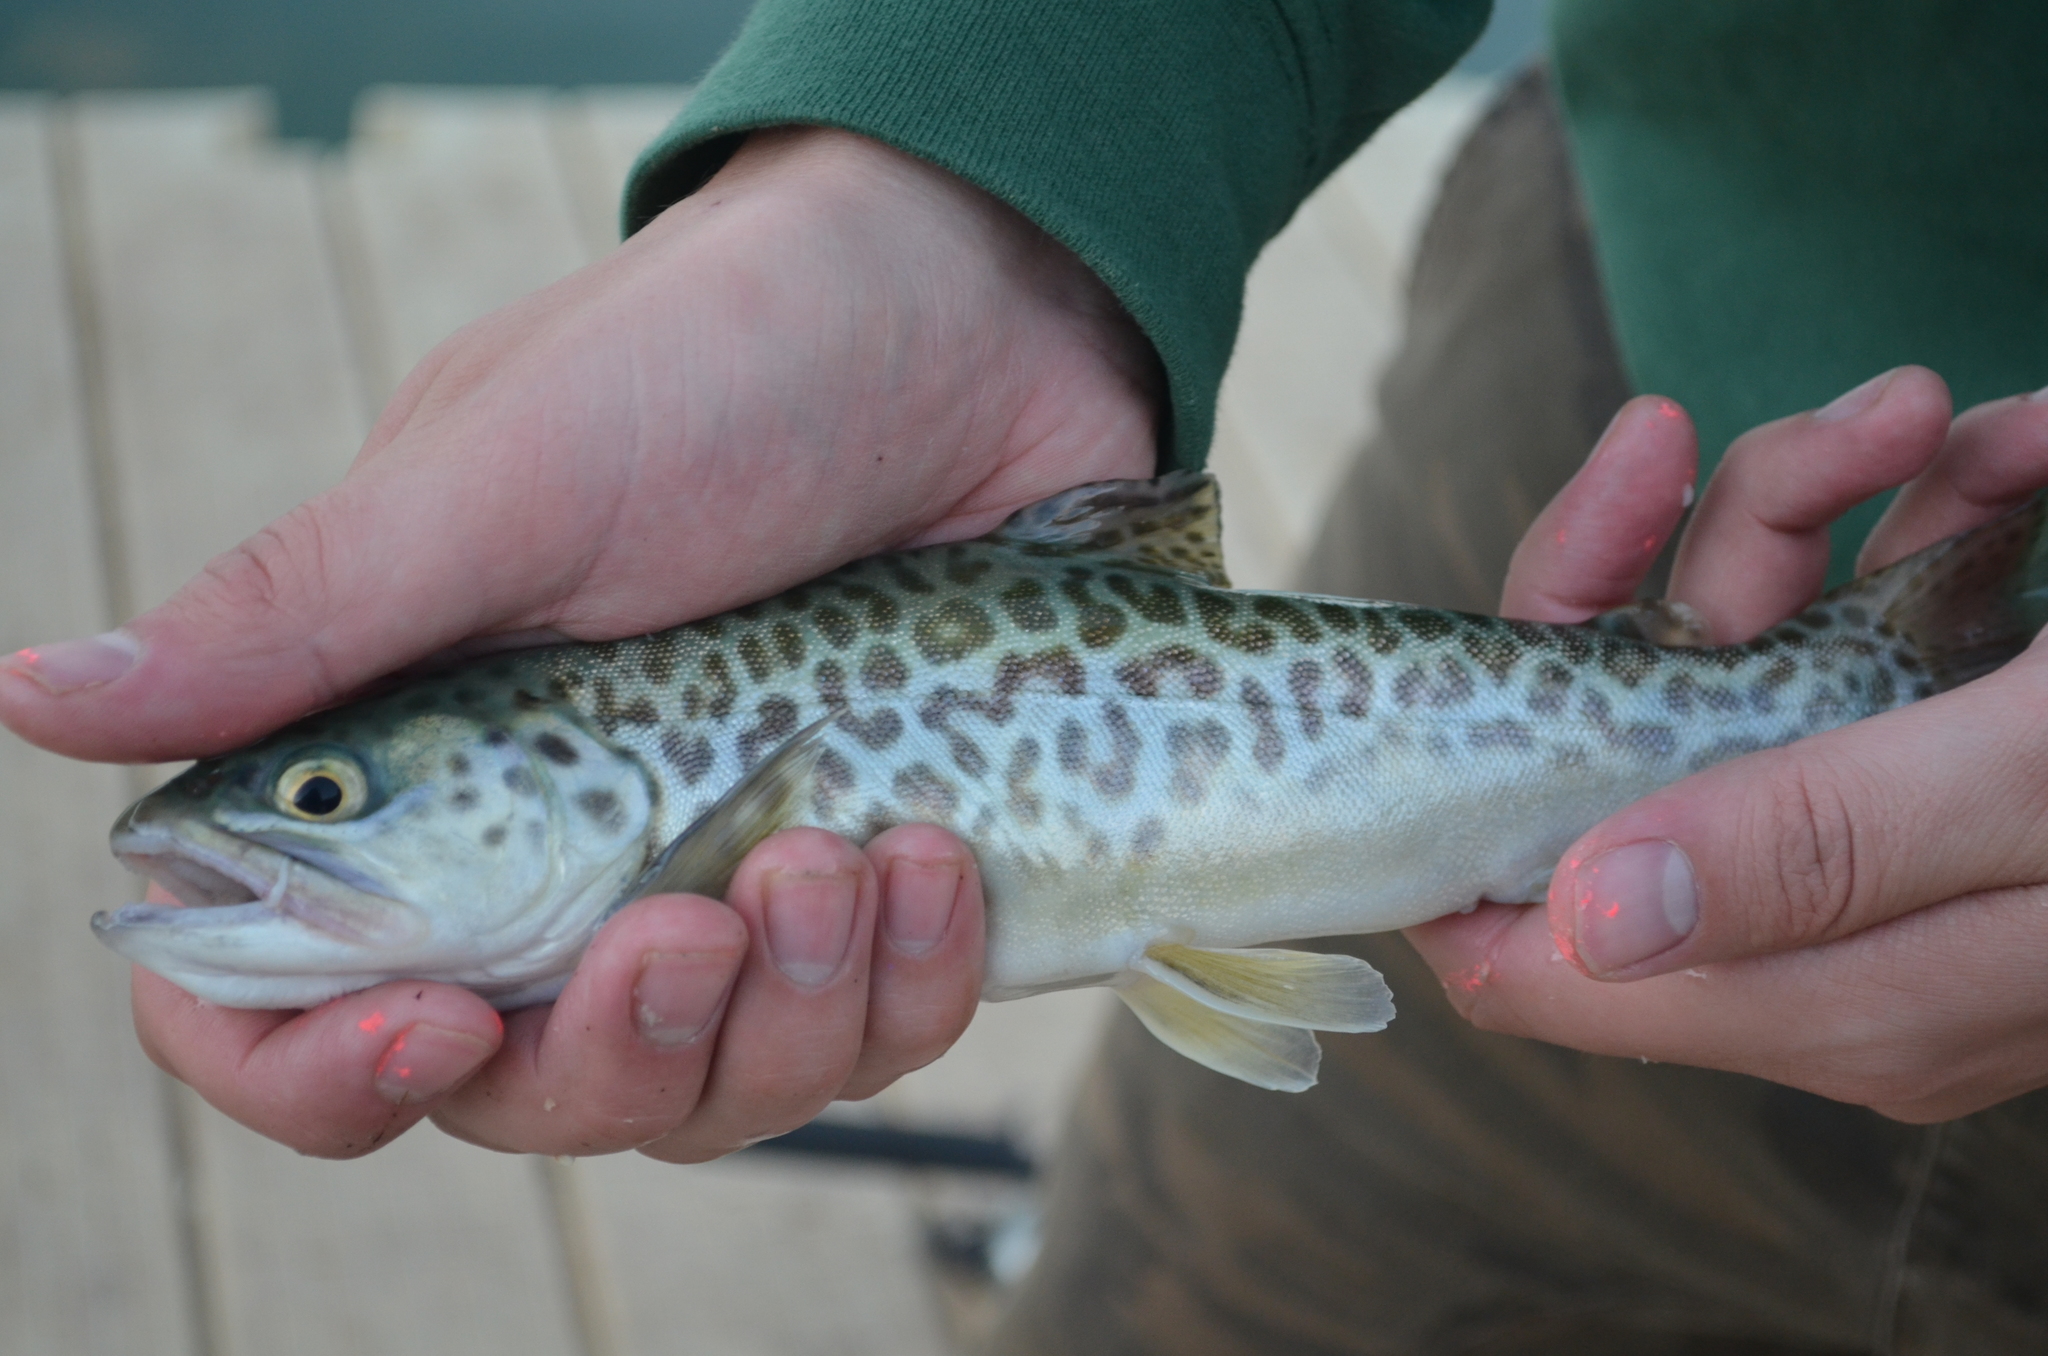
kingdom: Animalia
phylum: Chordata
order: Salmoniformes
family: Salmonidae
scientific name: Salmonidae
